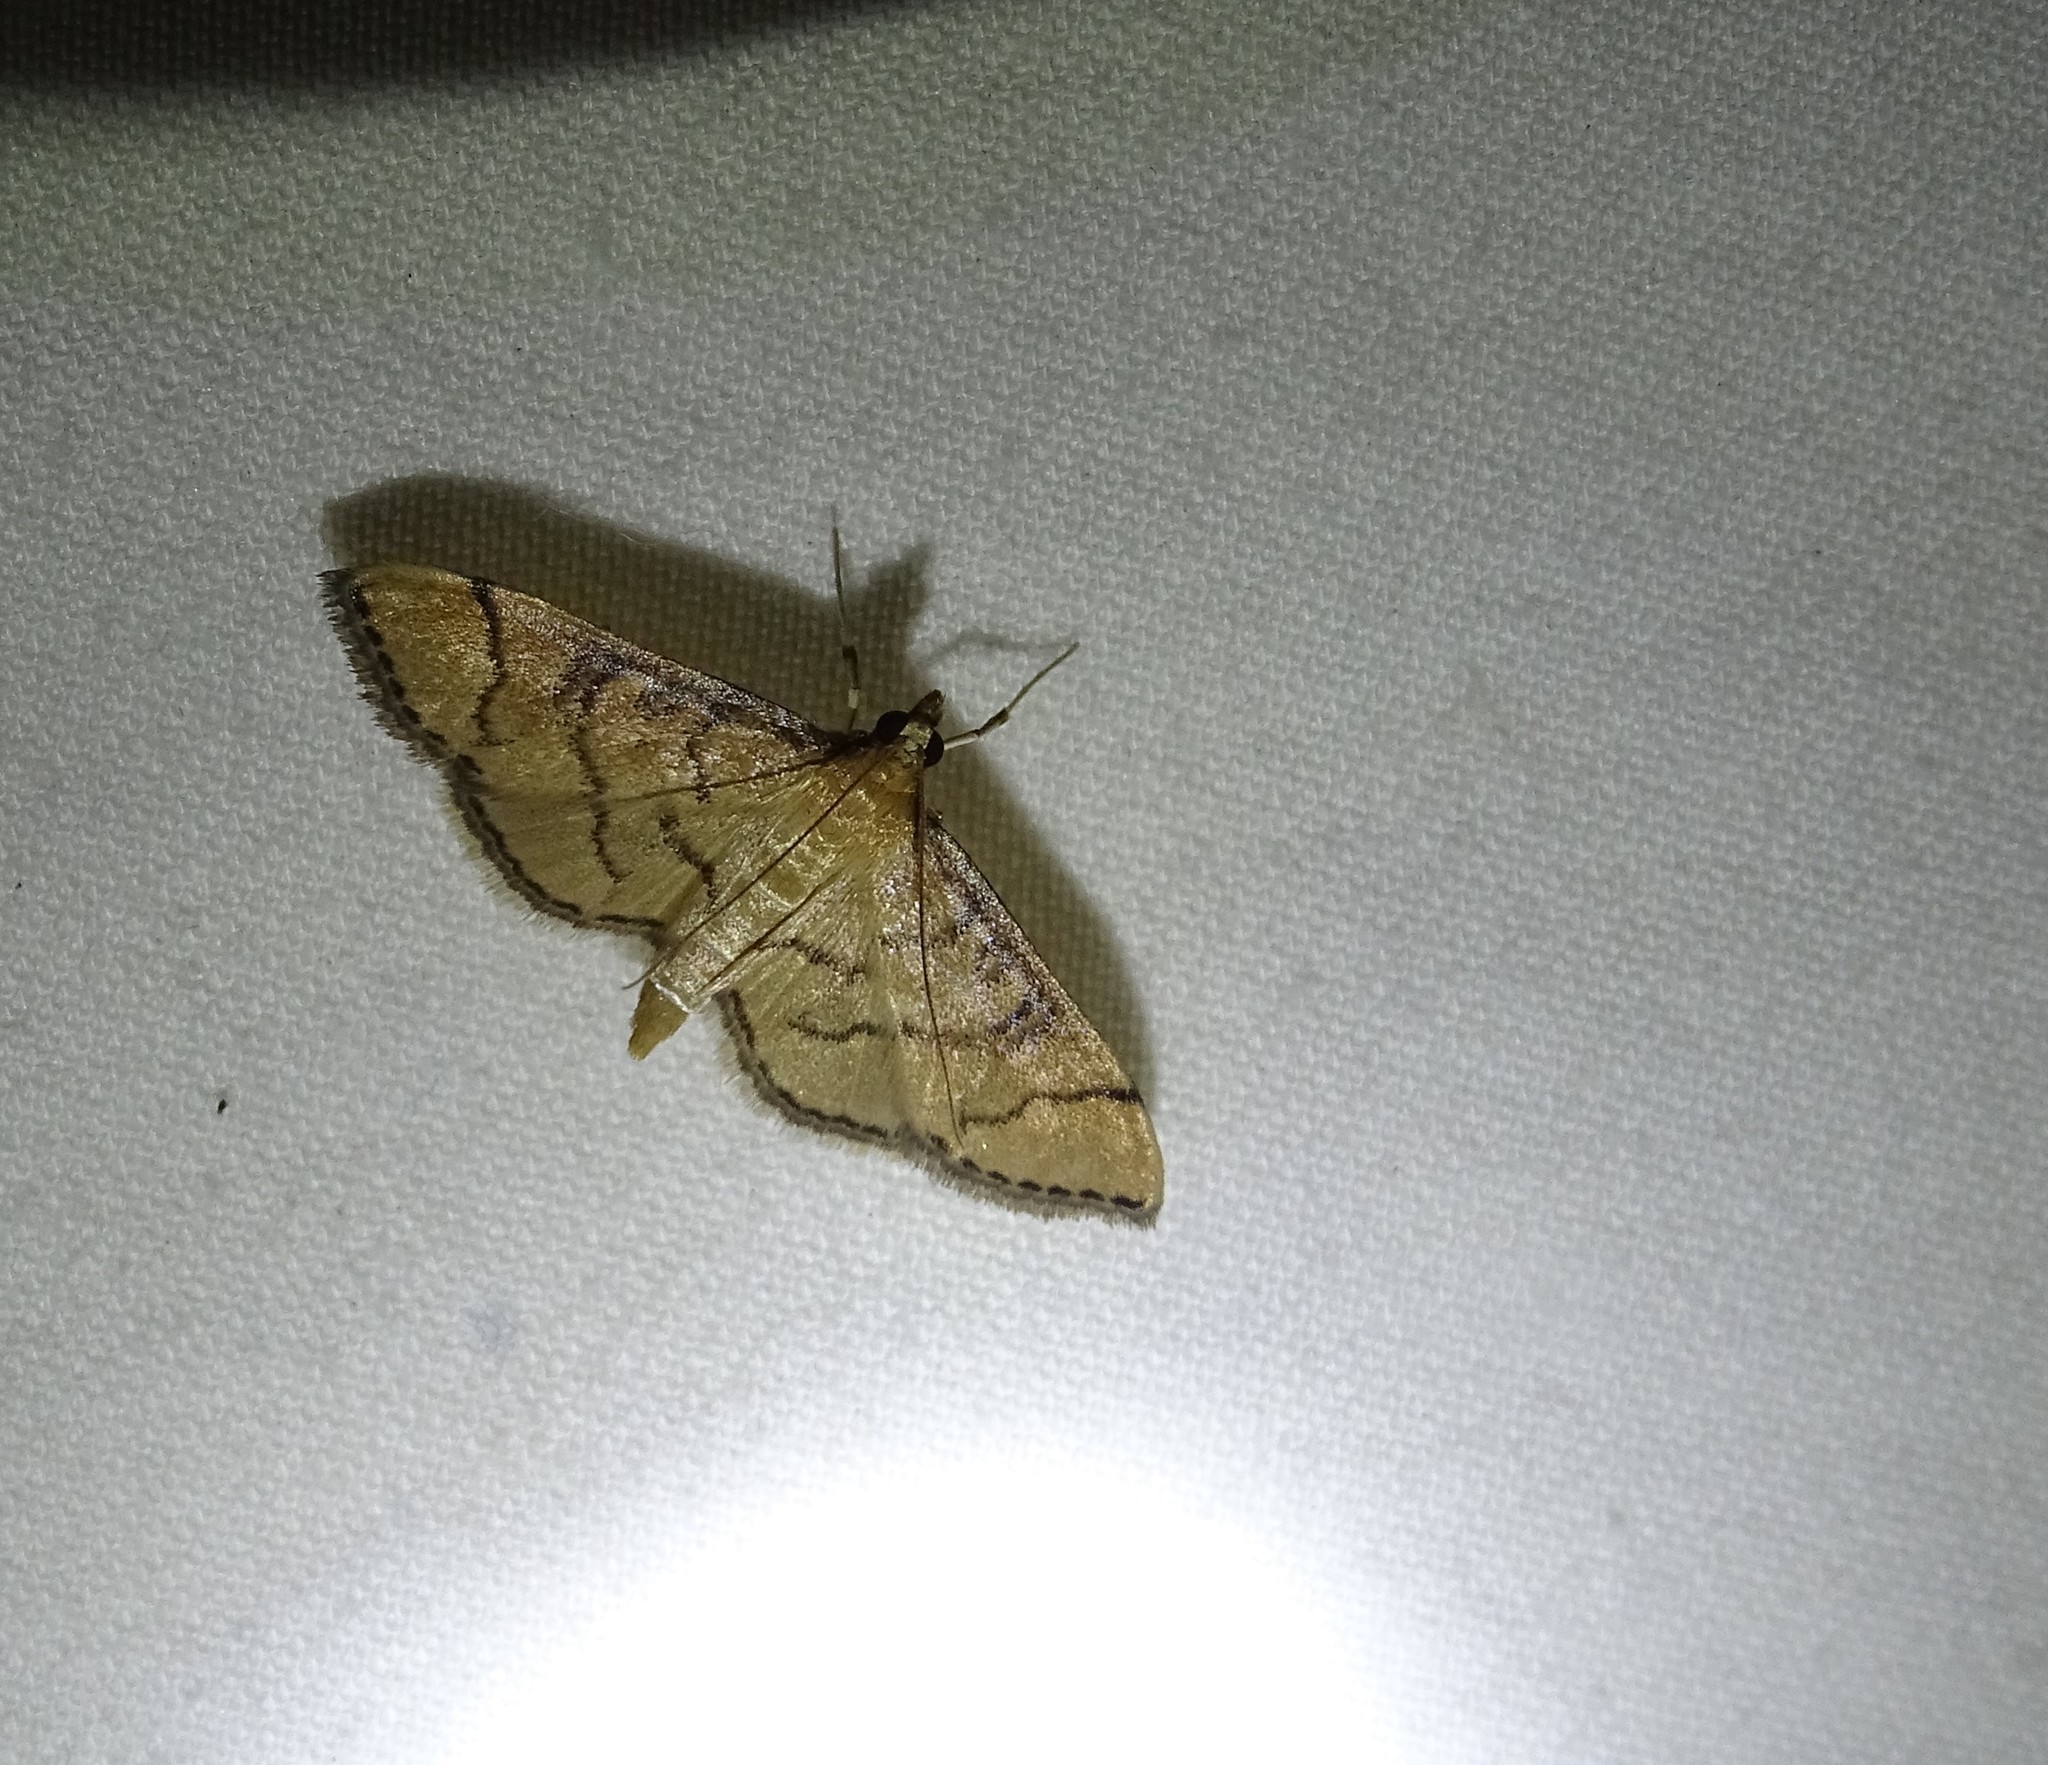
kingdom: Animalia
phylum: Arthropoda
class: Insecta
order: Lepidoptera
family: Crambidae
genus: Lamprosema
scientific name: Lamprosema Blepharomastix ranalis
